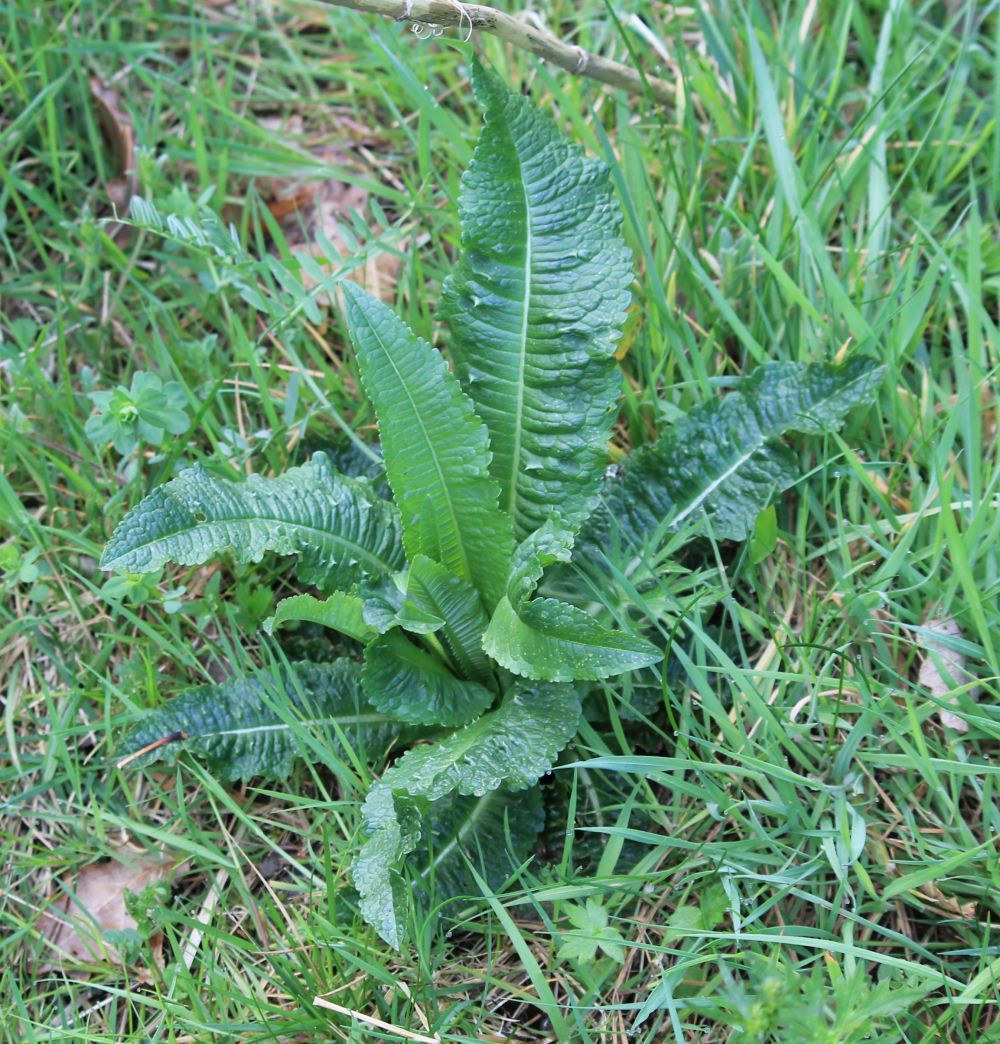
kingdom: Plantae
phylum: Tracheophyta
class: Magnoliopsida
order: Dipsacales
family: Caprifoliaceae
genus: Dipsacus
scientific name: Dipsacus fullonum
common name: Teasel
